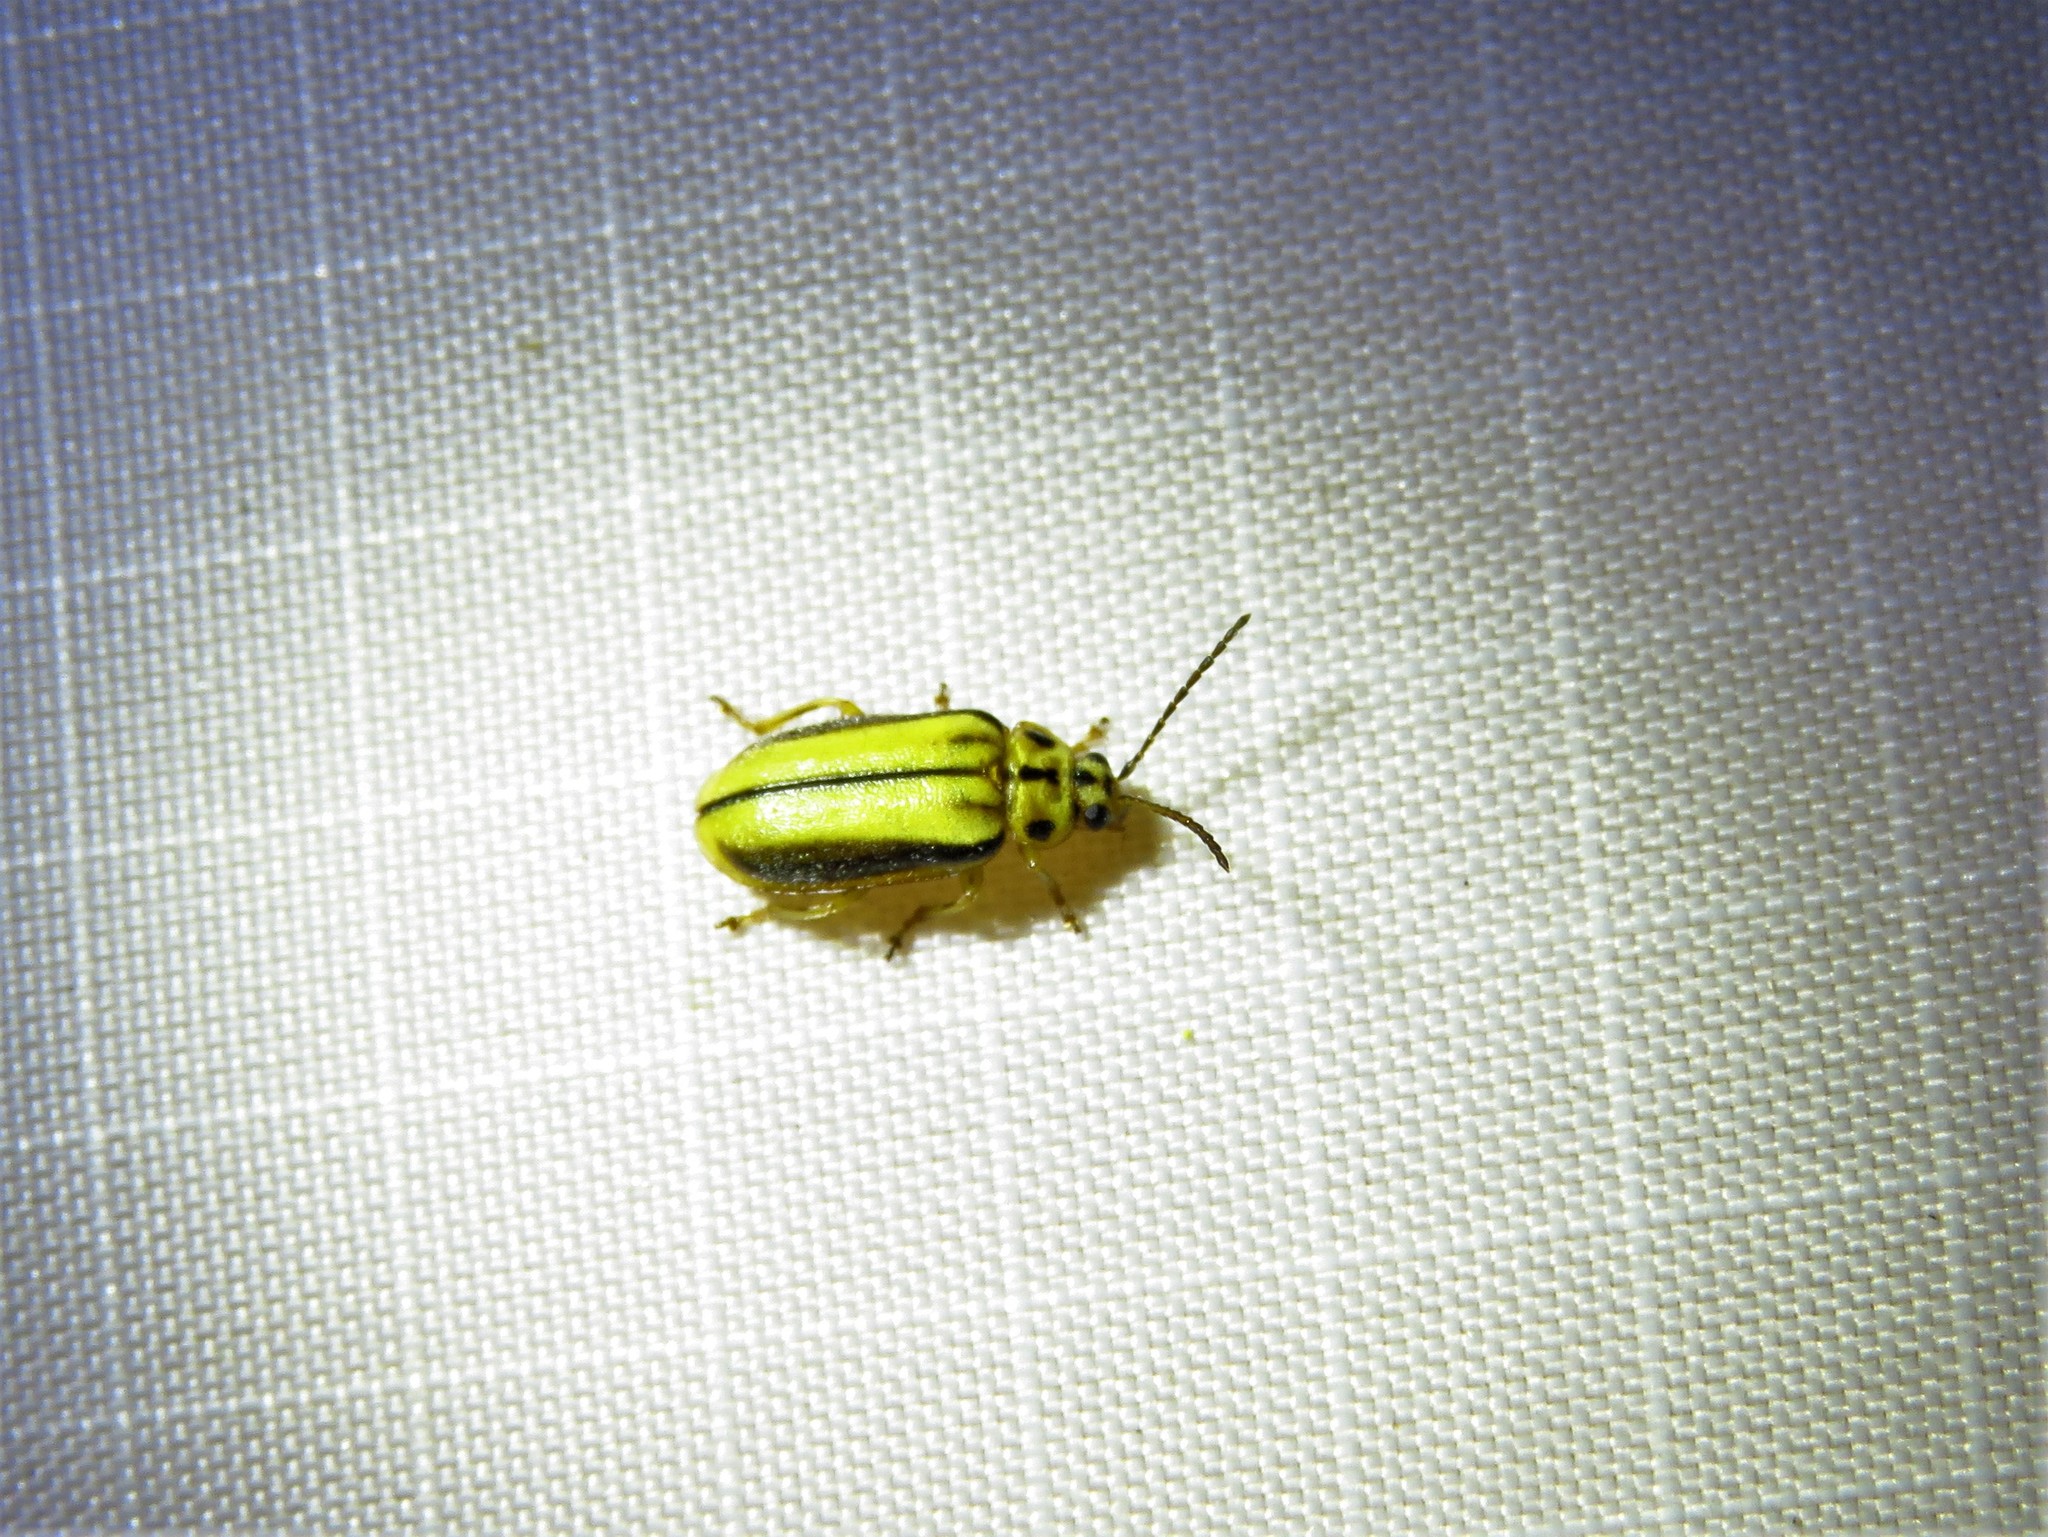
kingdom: Animalia
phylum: Arthropoda
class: Insecta
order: Coleoptera
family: Chrysomelidae
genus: Xanthogaleruca
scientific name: Xanthogaleruca luteola
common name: Elm leaf beetle
